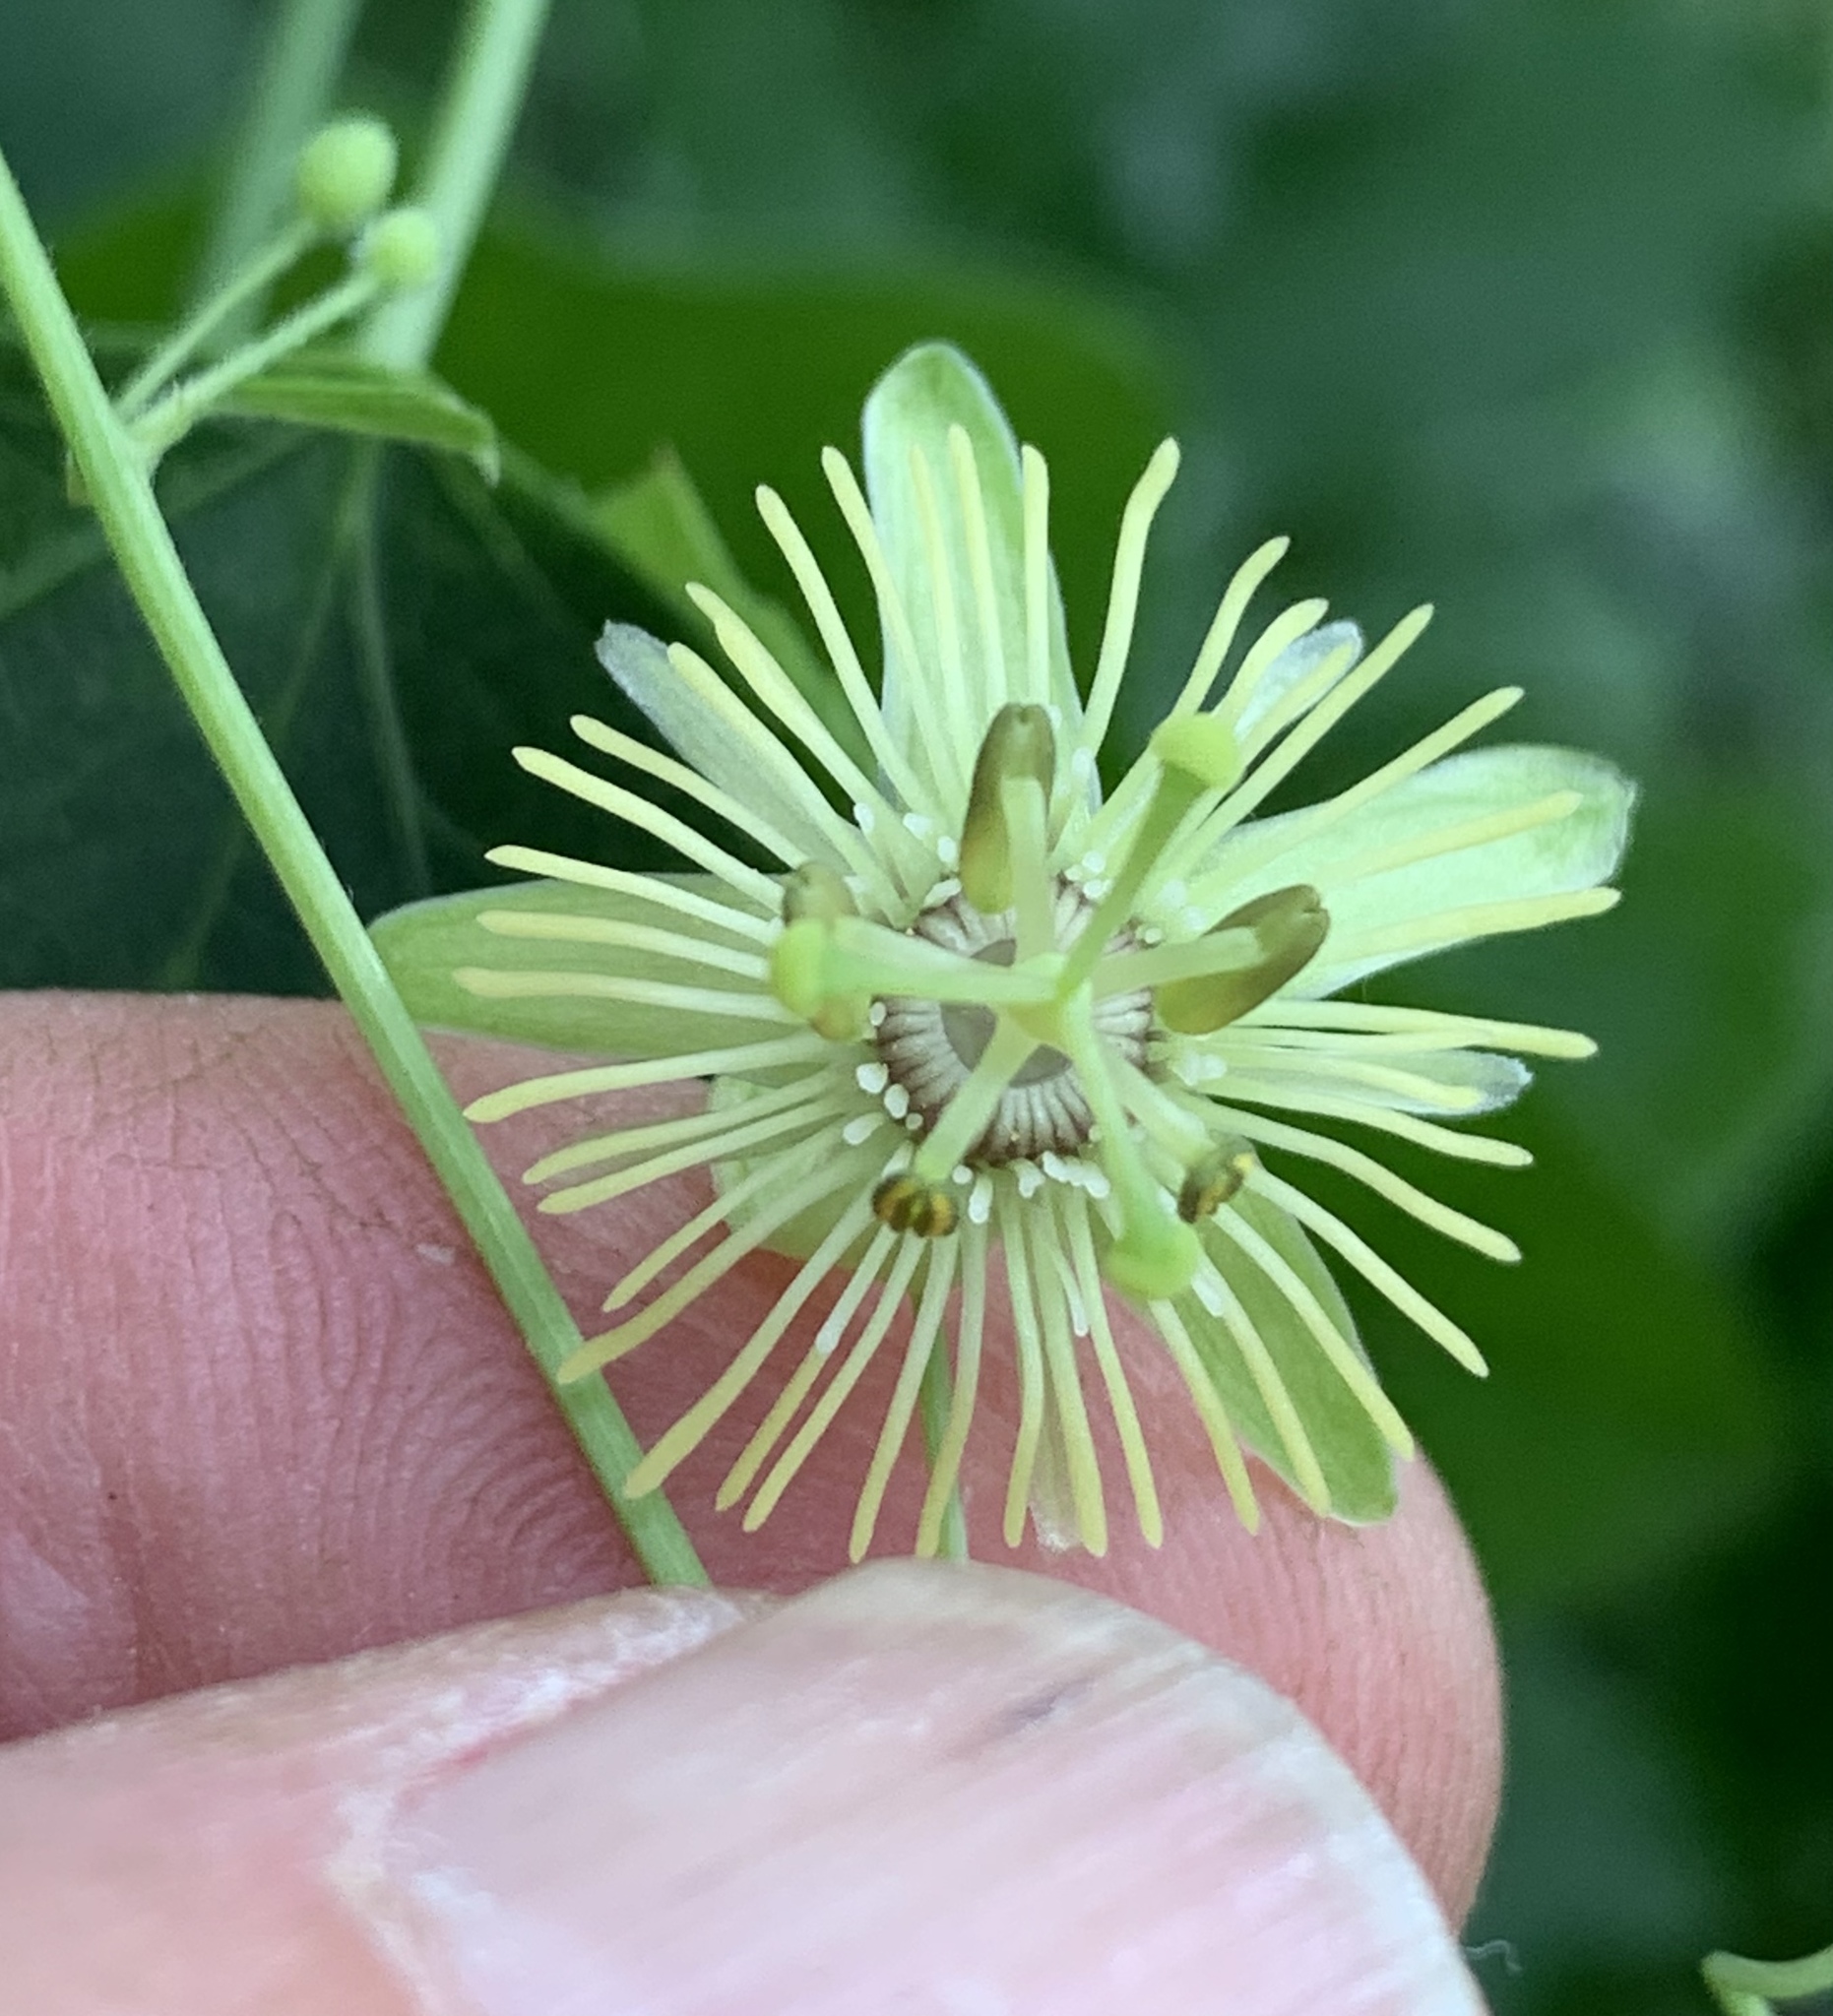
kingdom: Plantae
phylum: Tracheophyta
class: Magnoliopsida
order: Malpighiales
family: Passifloraceae
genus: Passiflora
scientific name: Passiflora lutea
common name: Yellow passionflower
